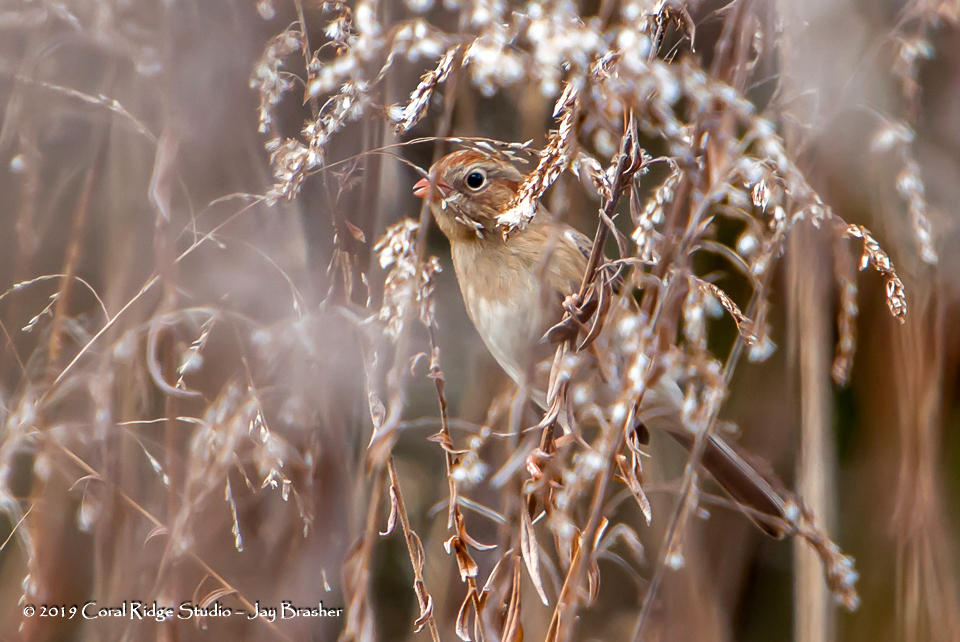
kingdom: Animalia
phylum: Chordata
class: Aves
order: Passeriformes
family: Passerellidae
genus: Spizella
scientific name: Spizella pusilla
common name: Field sparrow
